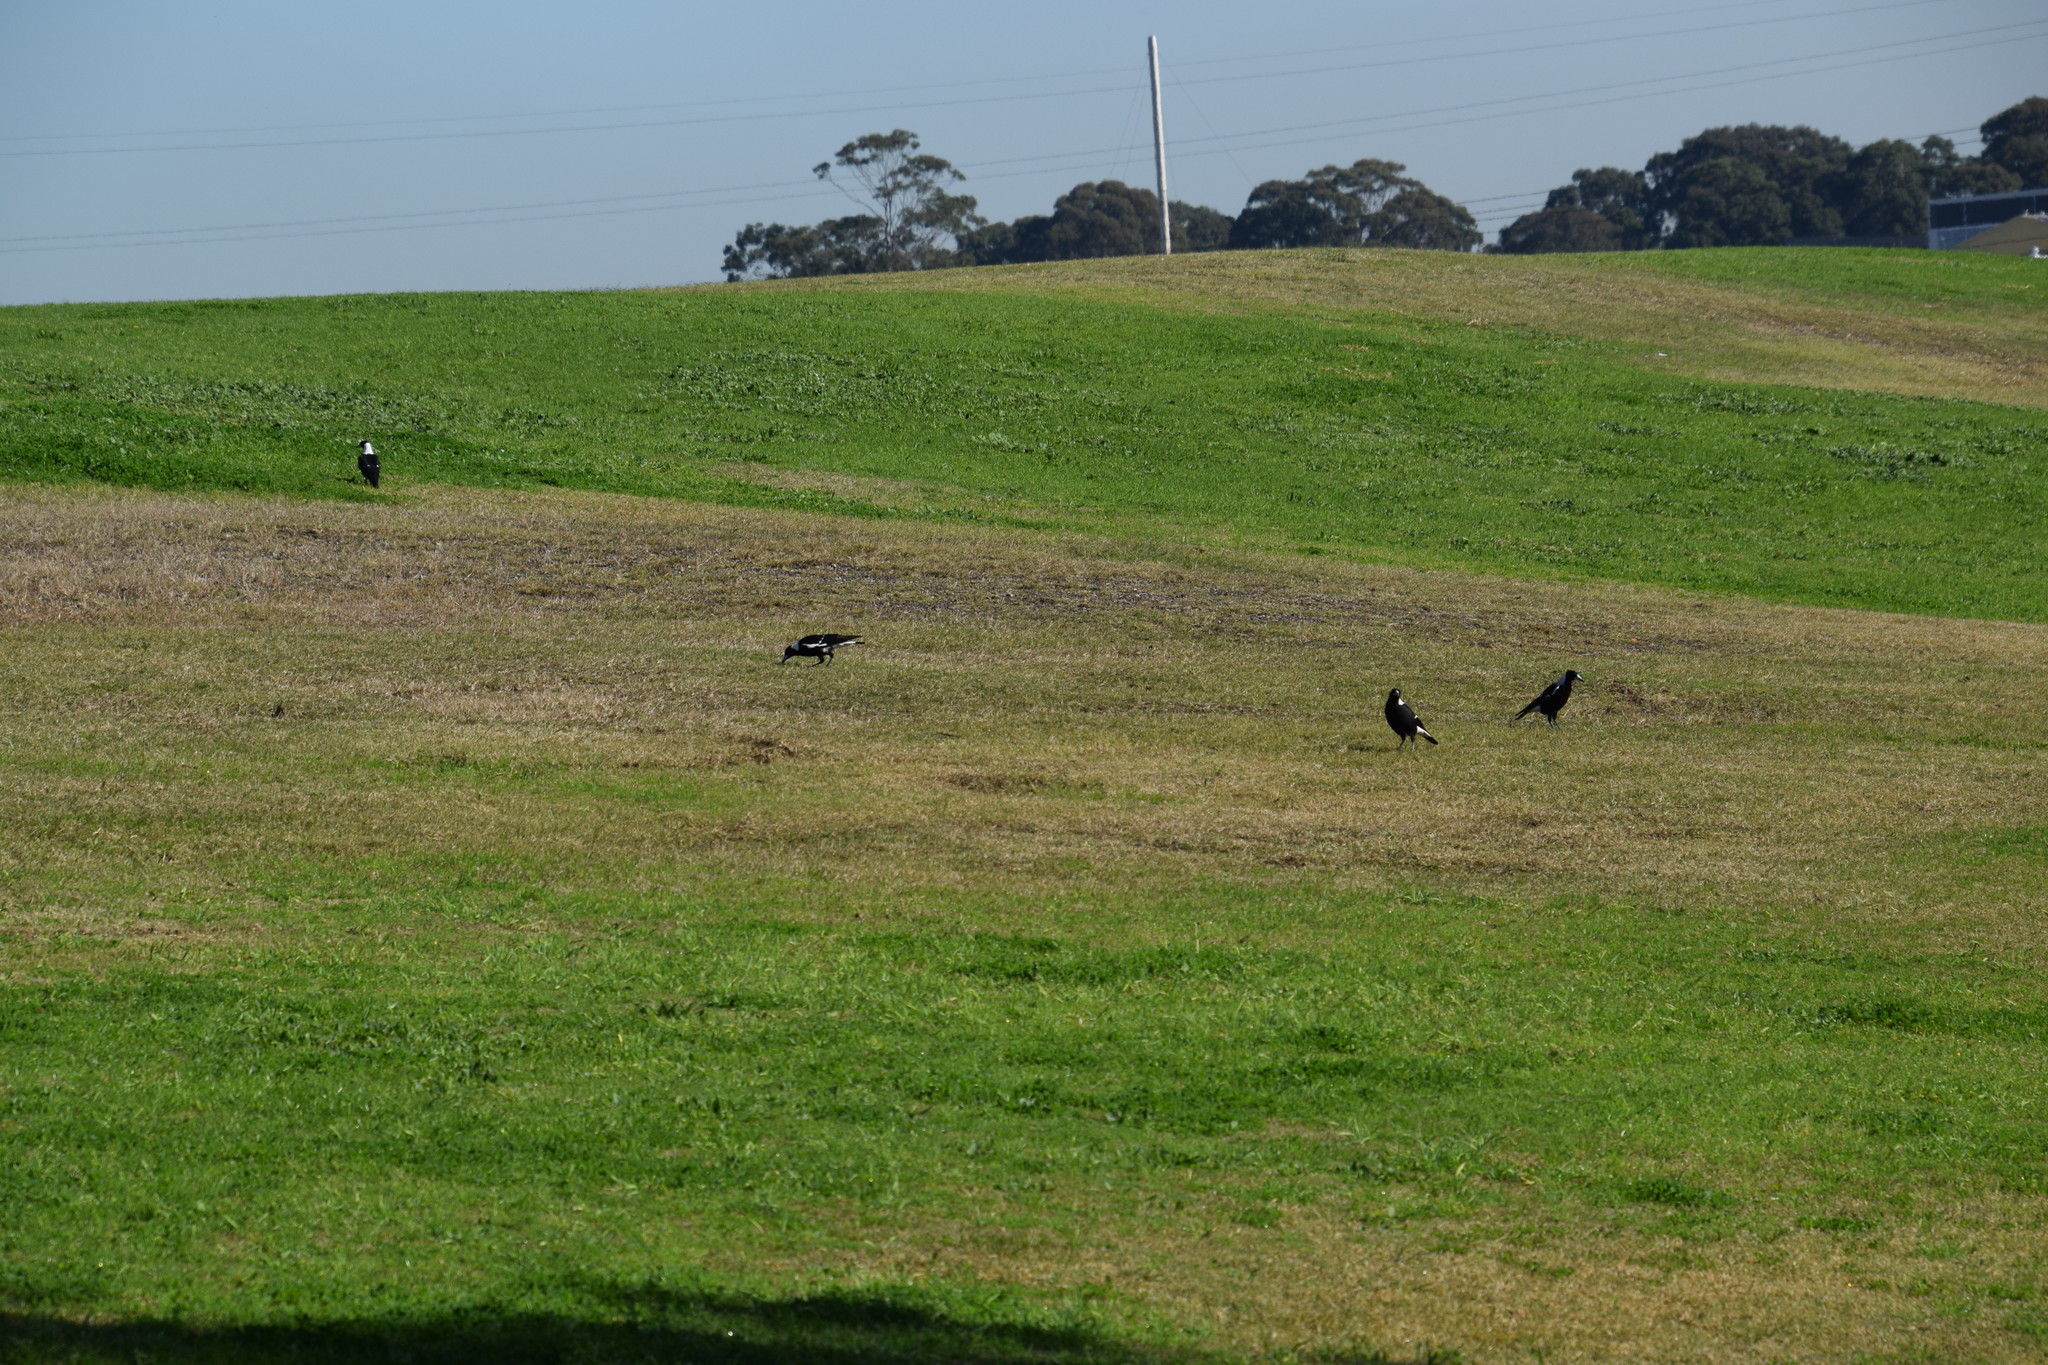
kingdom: Animalia
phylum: Chordata
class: Aves
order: Passeriformes
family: Cracticidae
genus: Gymnorhina
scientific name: Gymnorhina tibicen
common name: Australian magpie
